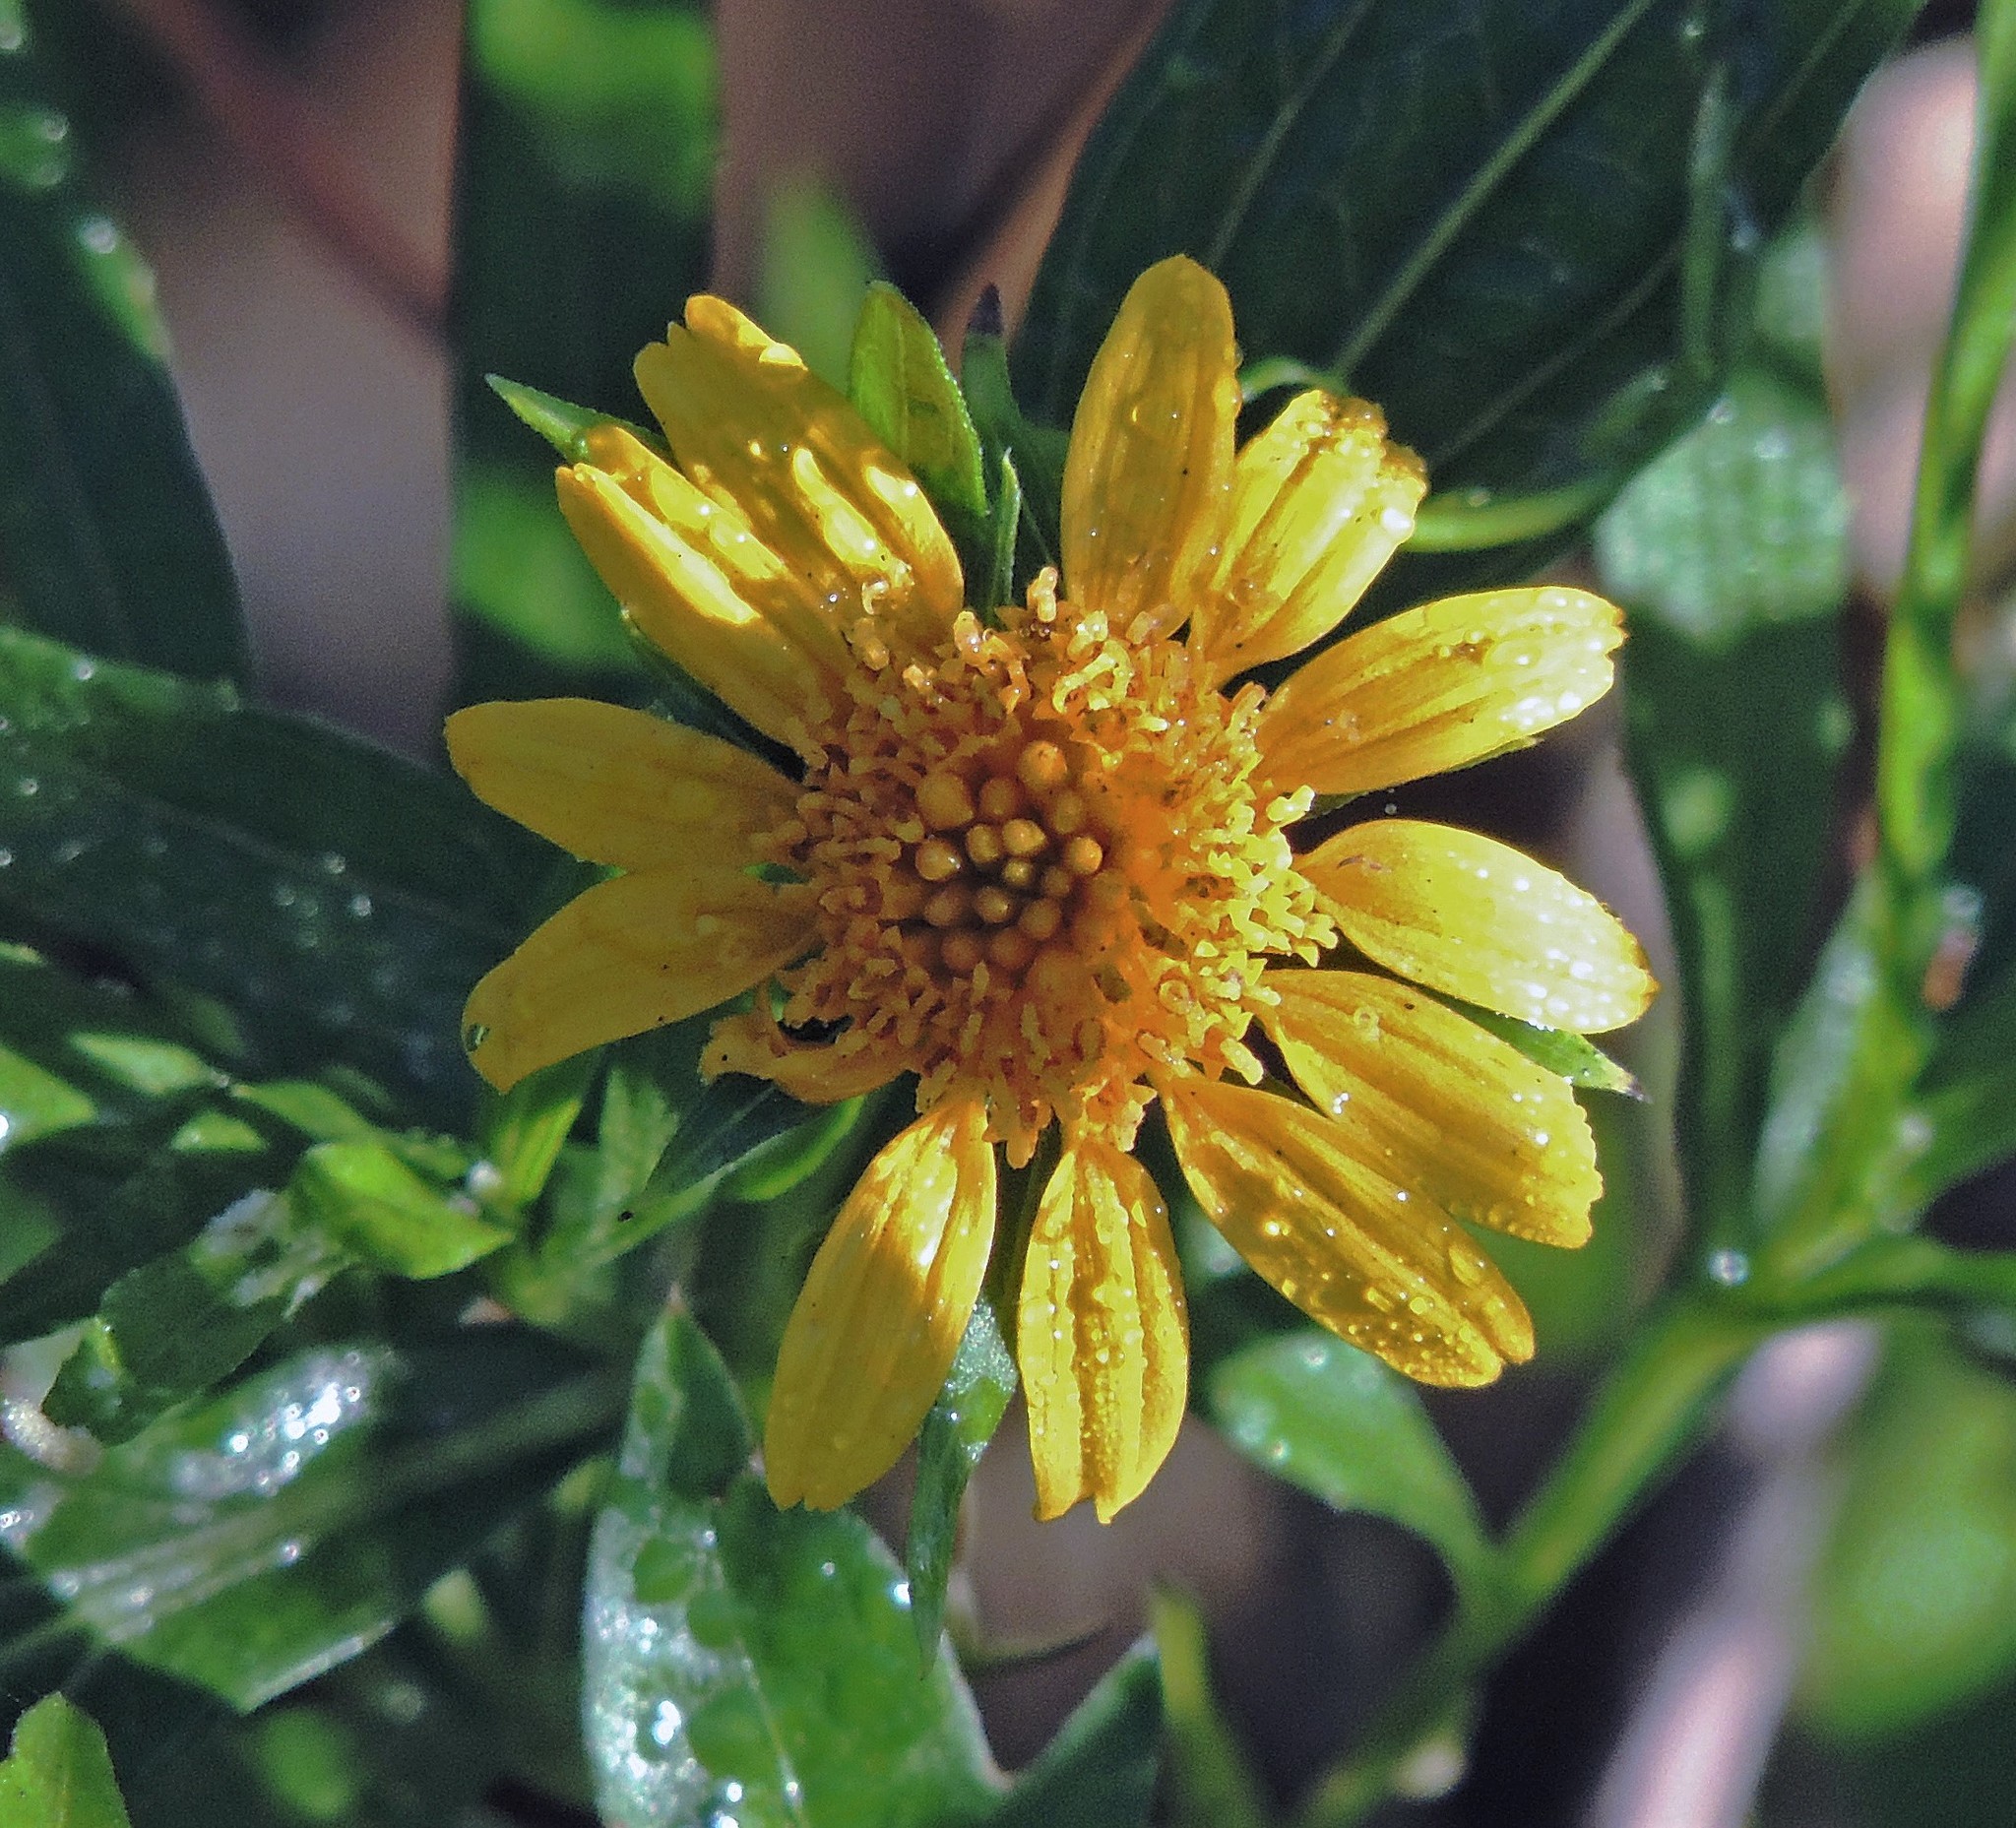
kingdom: Plantae
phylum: Tracheophyta
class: Magnoliopsida
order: Asterales
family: Asteraceae
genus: Pascalia
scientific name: Pascalia glauca
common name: Beach creeping oxeye
